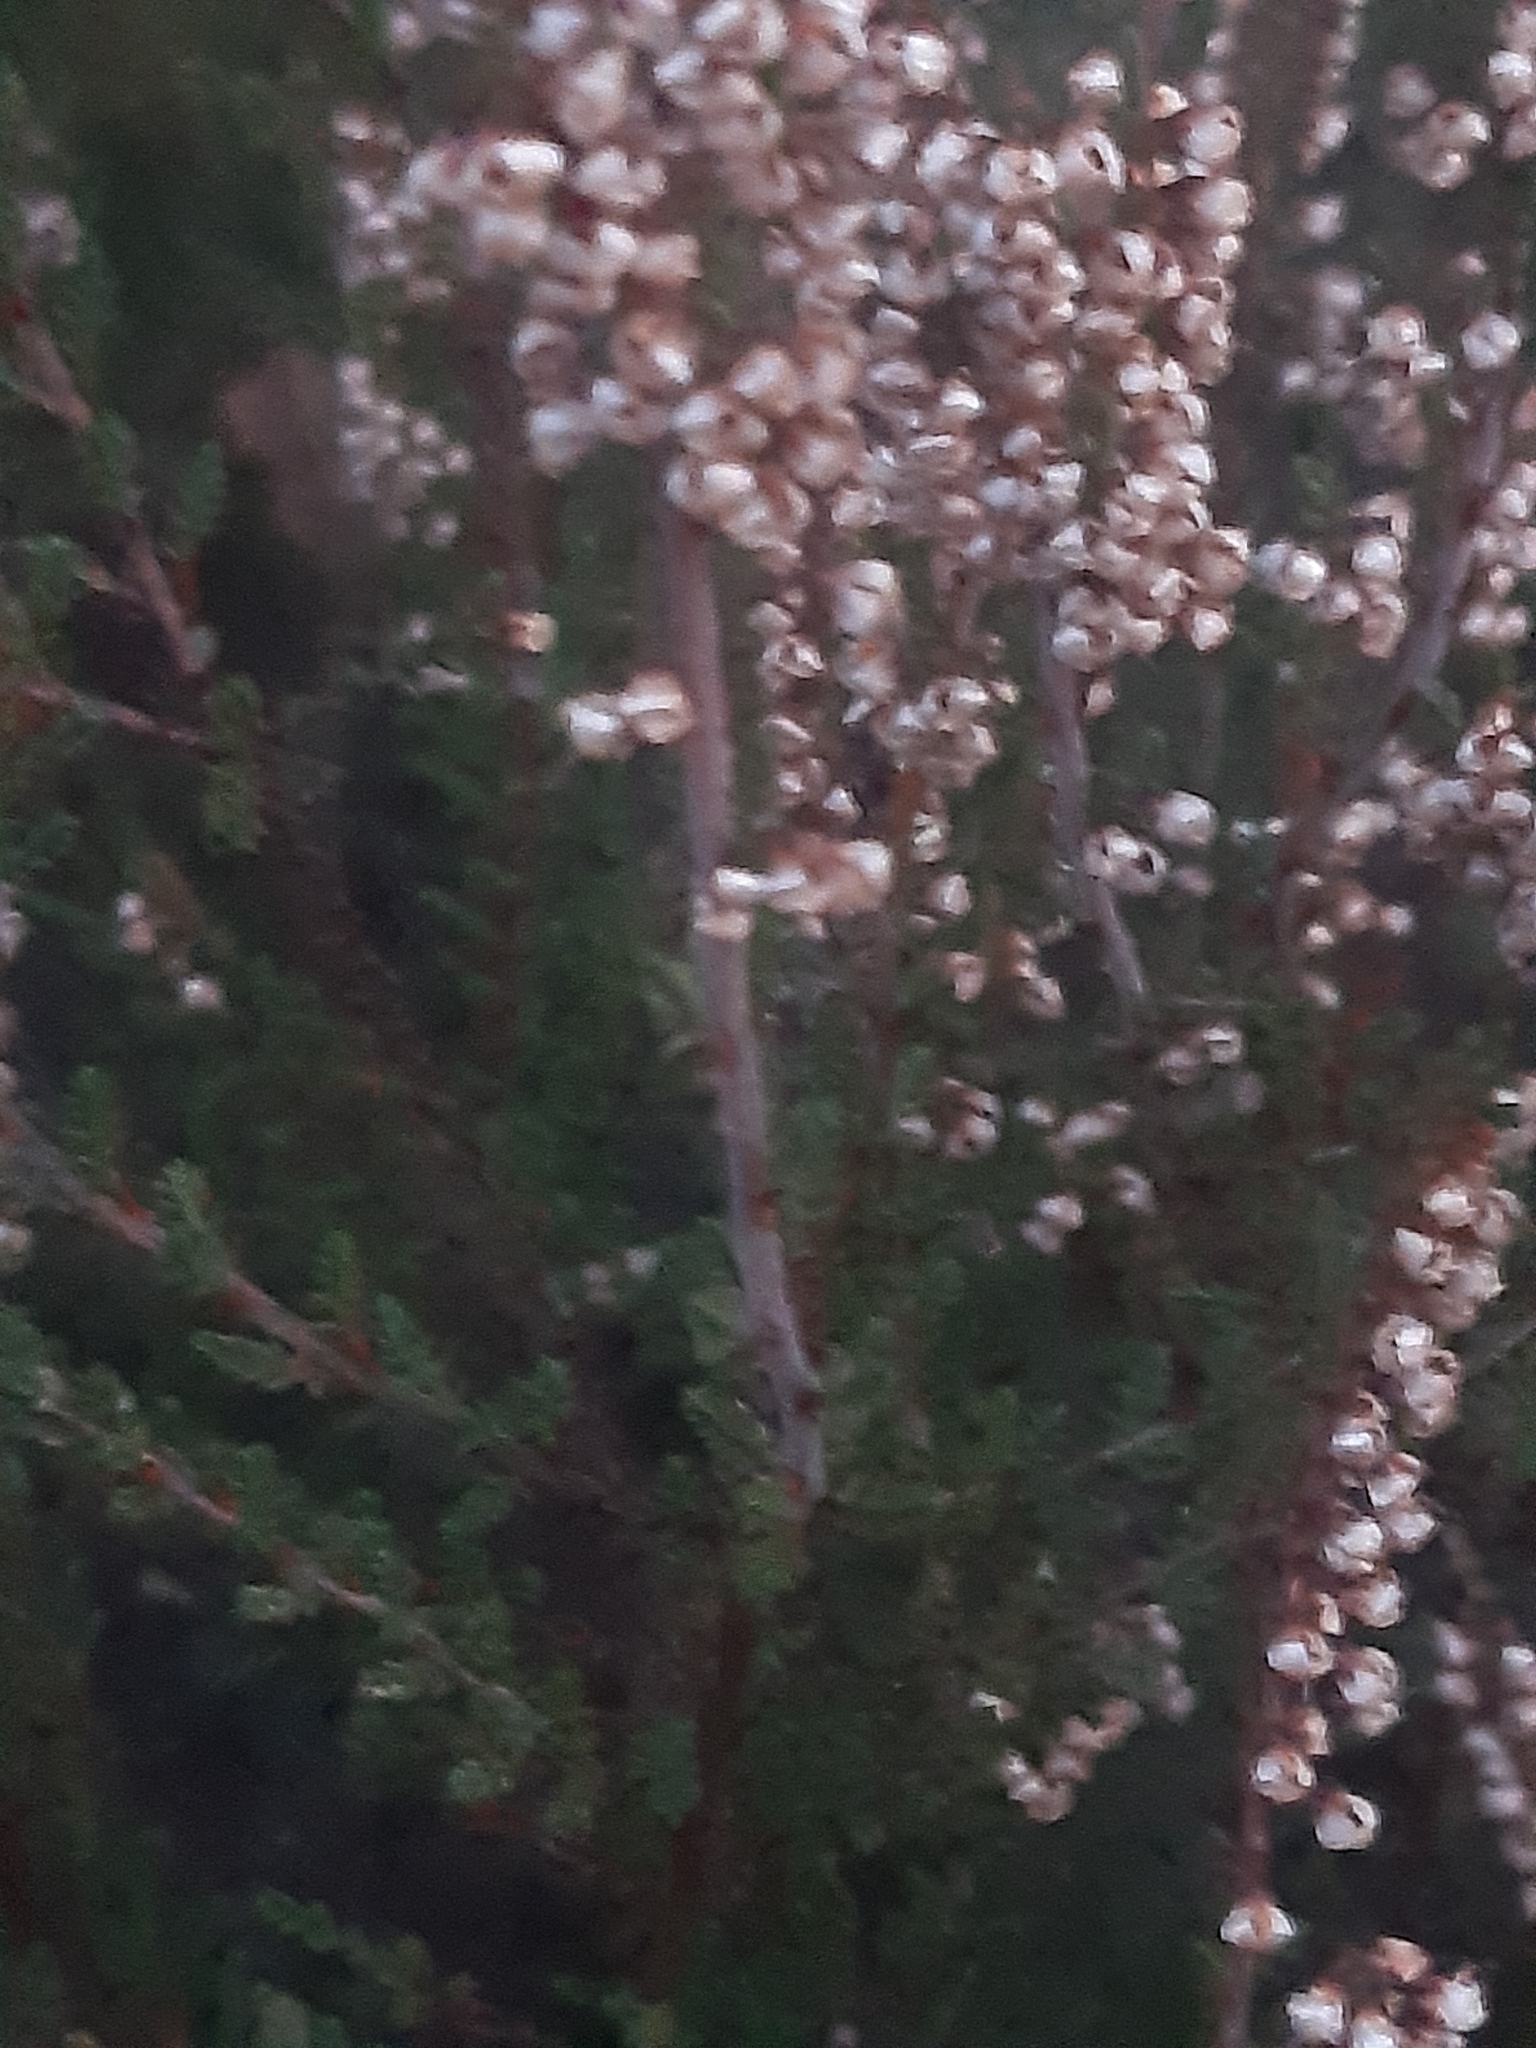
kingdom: Plantae
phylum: Tracheophyta
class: Magnoliopsida
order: Ericales
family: Ericaceae
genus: Calluna
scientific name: Calluna vulgaris
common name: Heather
